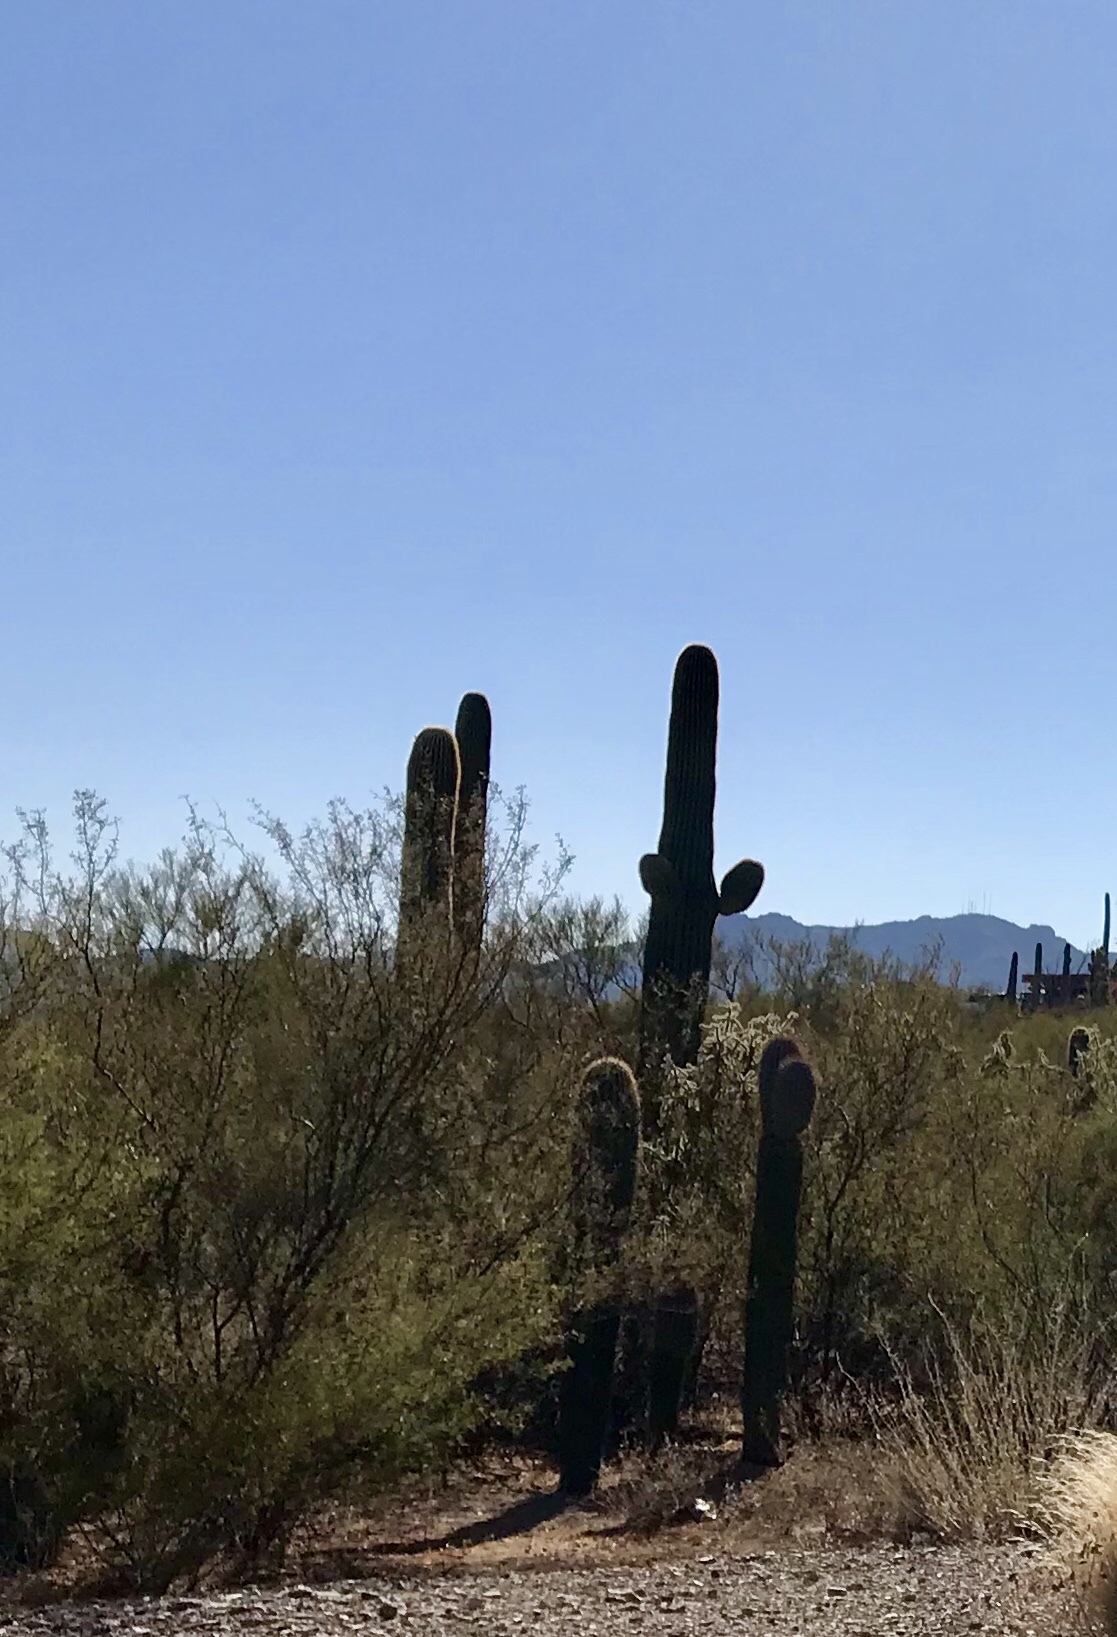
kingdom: Plantae
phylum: Tracheophyta
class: Magnoliopsida
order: Caryophyllales
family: Cactaceae
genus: Carnegiea
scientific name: Carnegiea gigantea
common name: Saguaro
